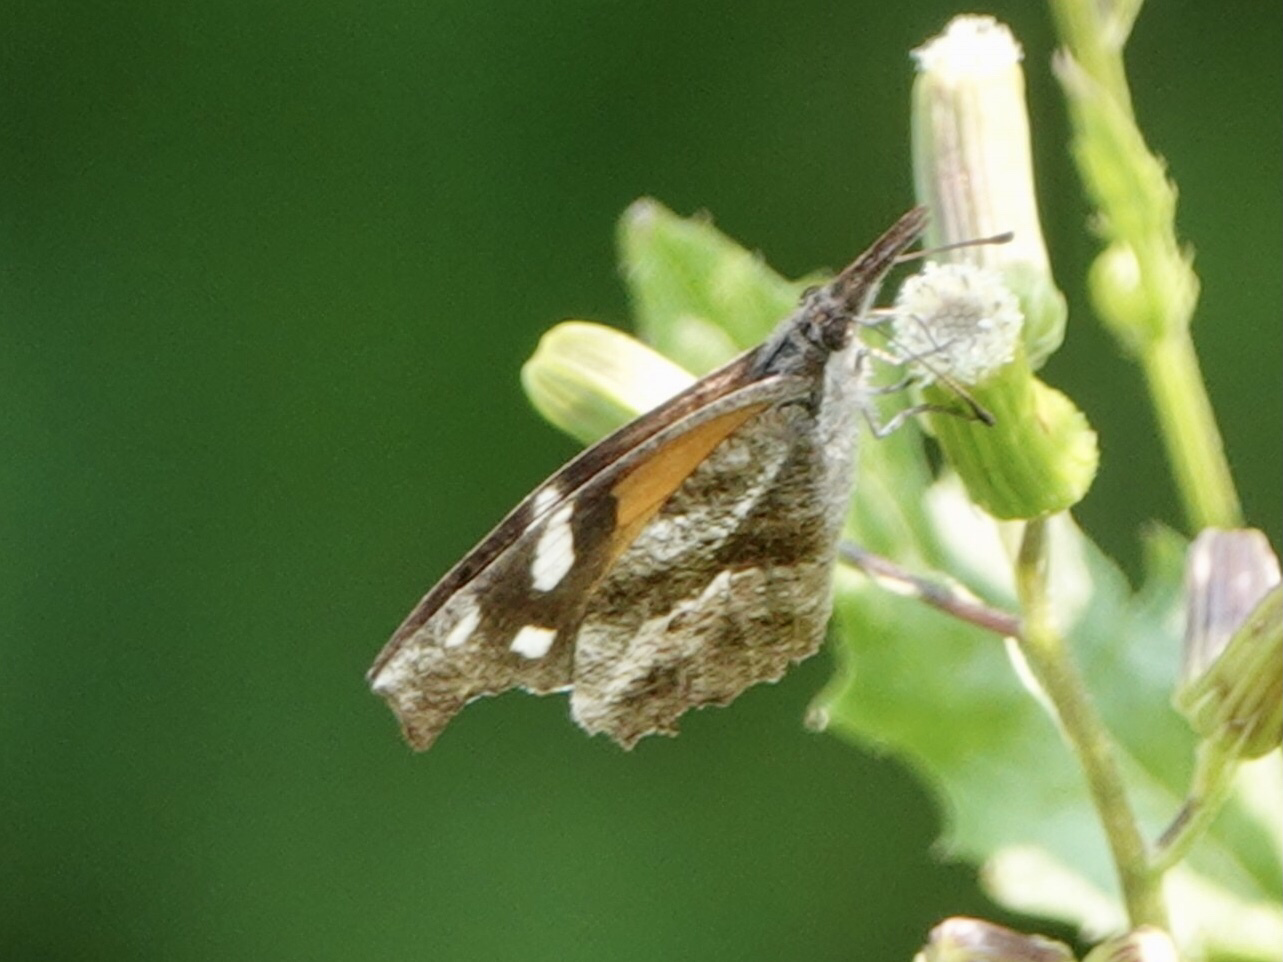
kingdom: Animalia
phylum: Arthropoda
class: Insecta
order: Lepidoptera
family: Nymphalidae
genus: Libytheana
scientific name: Libytheana carinenta
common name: American snout
